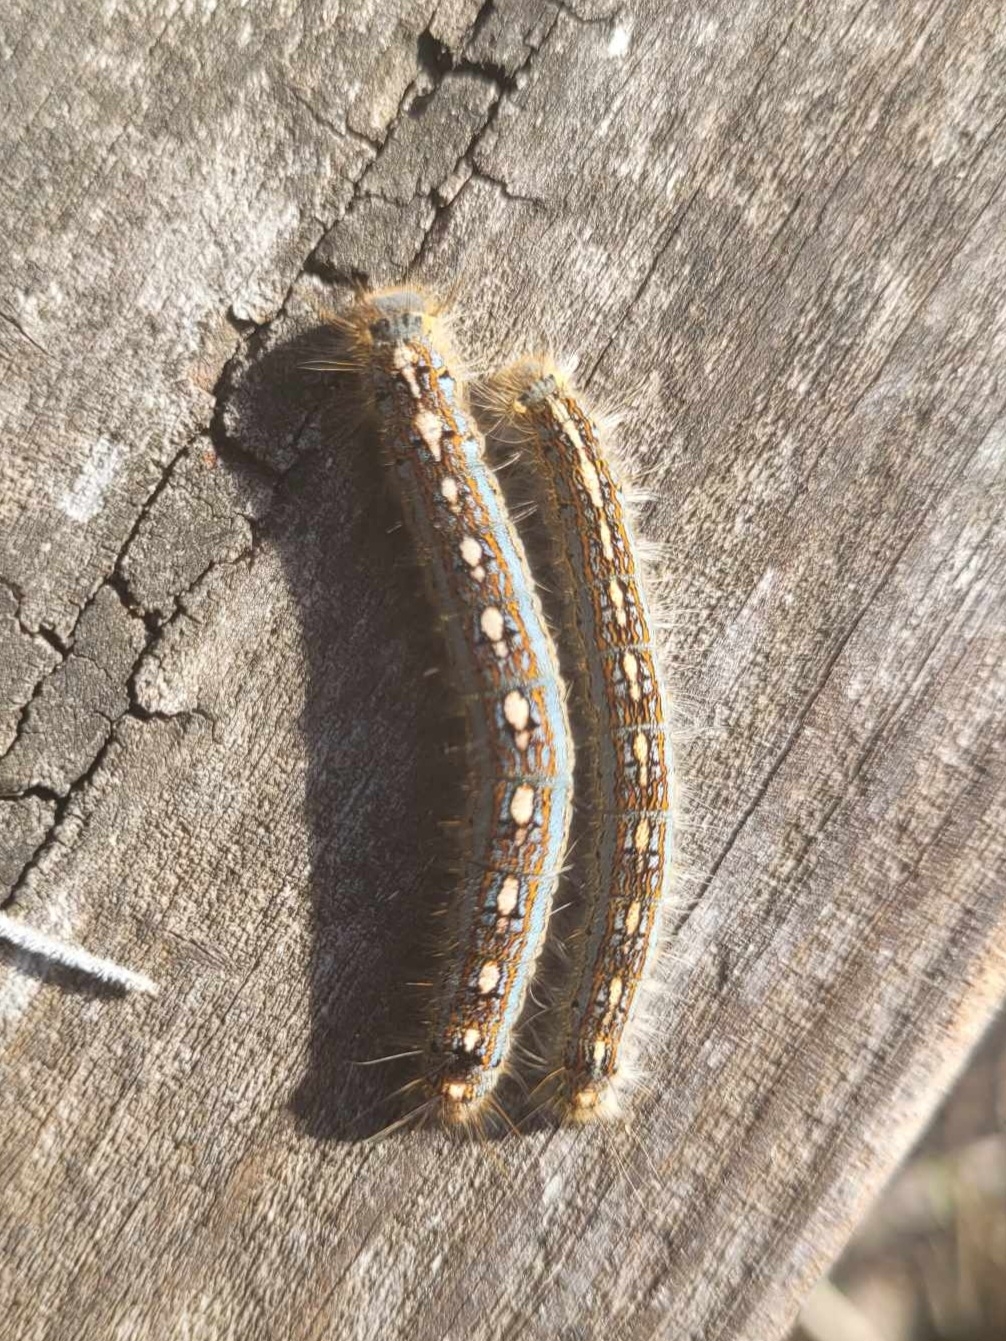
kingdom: Animalia
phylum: Arthropoda
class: Insecta
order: Lepidoptera
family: Lasiocampidae
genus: Malacosoma
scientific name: Malacosoma disstria
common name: Forest tent caterpillar
